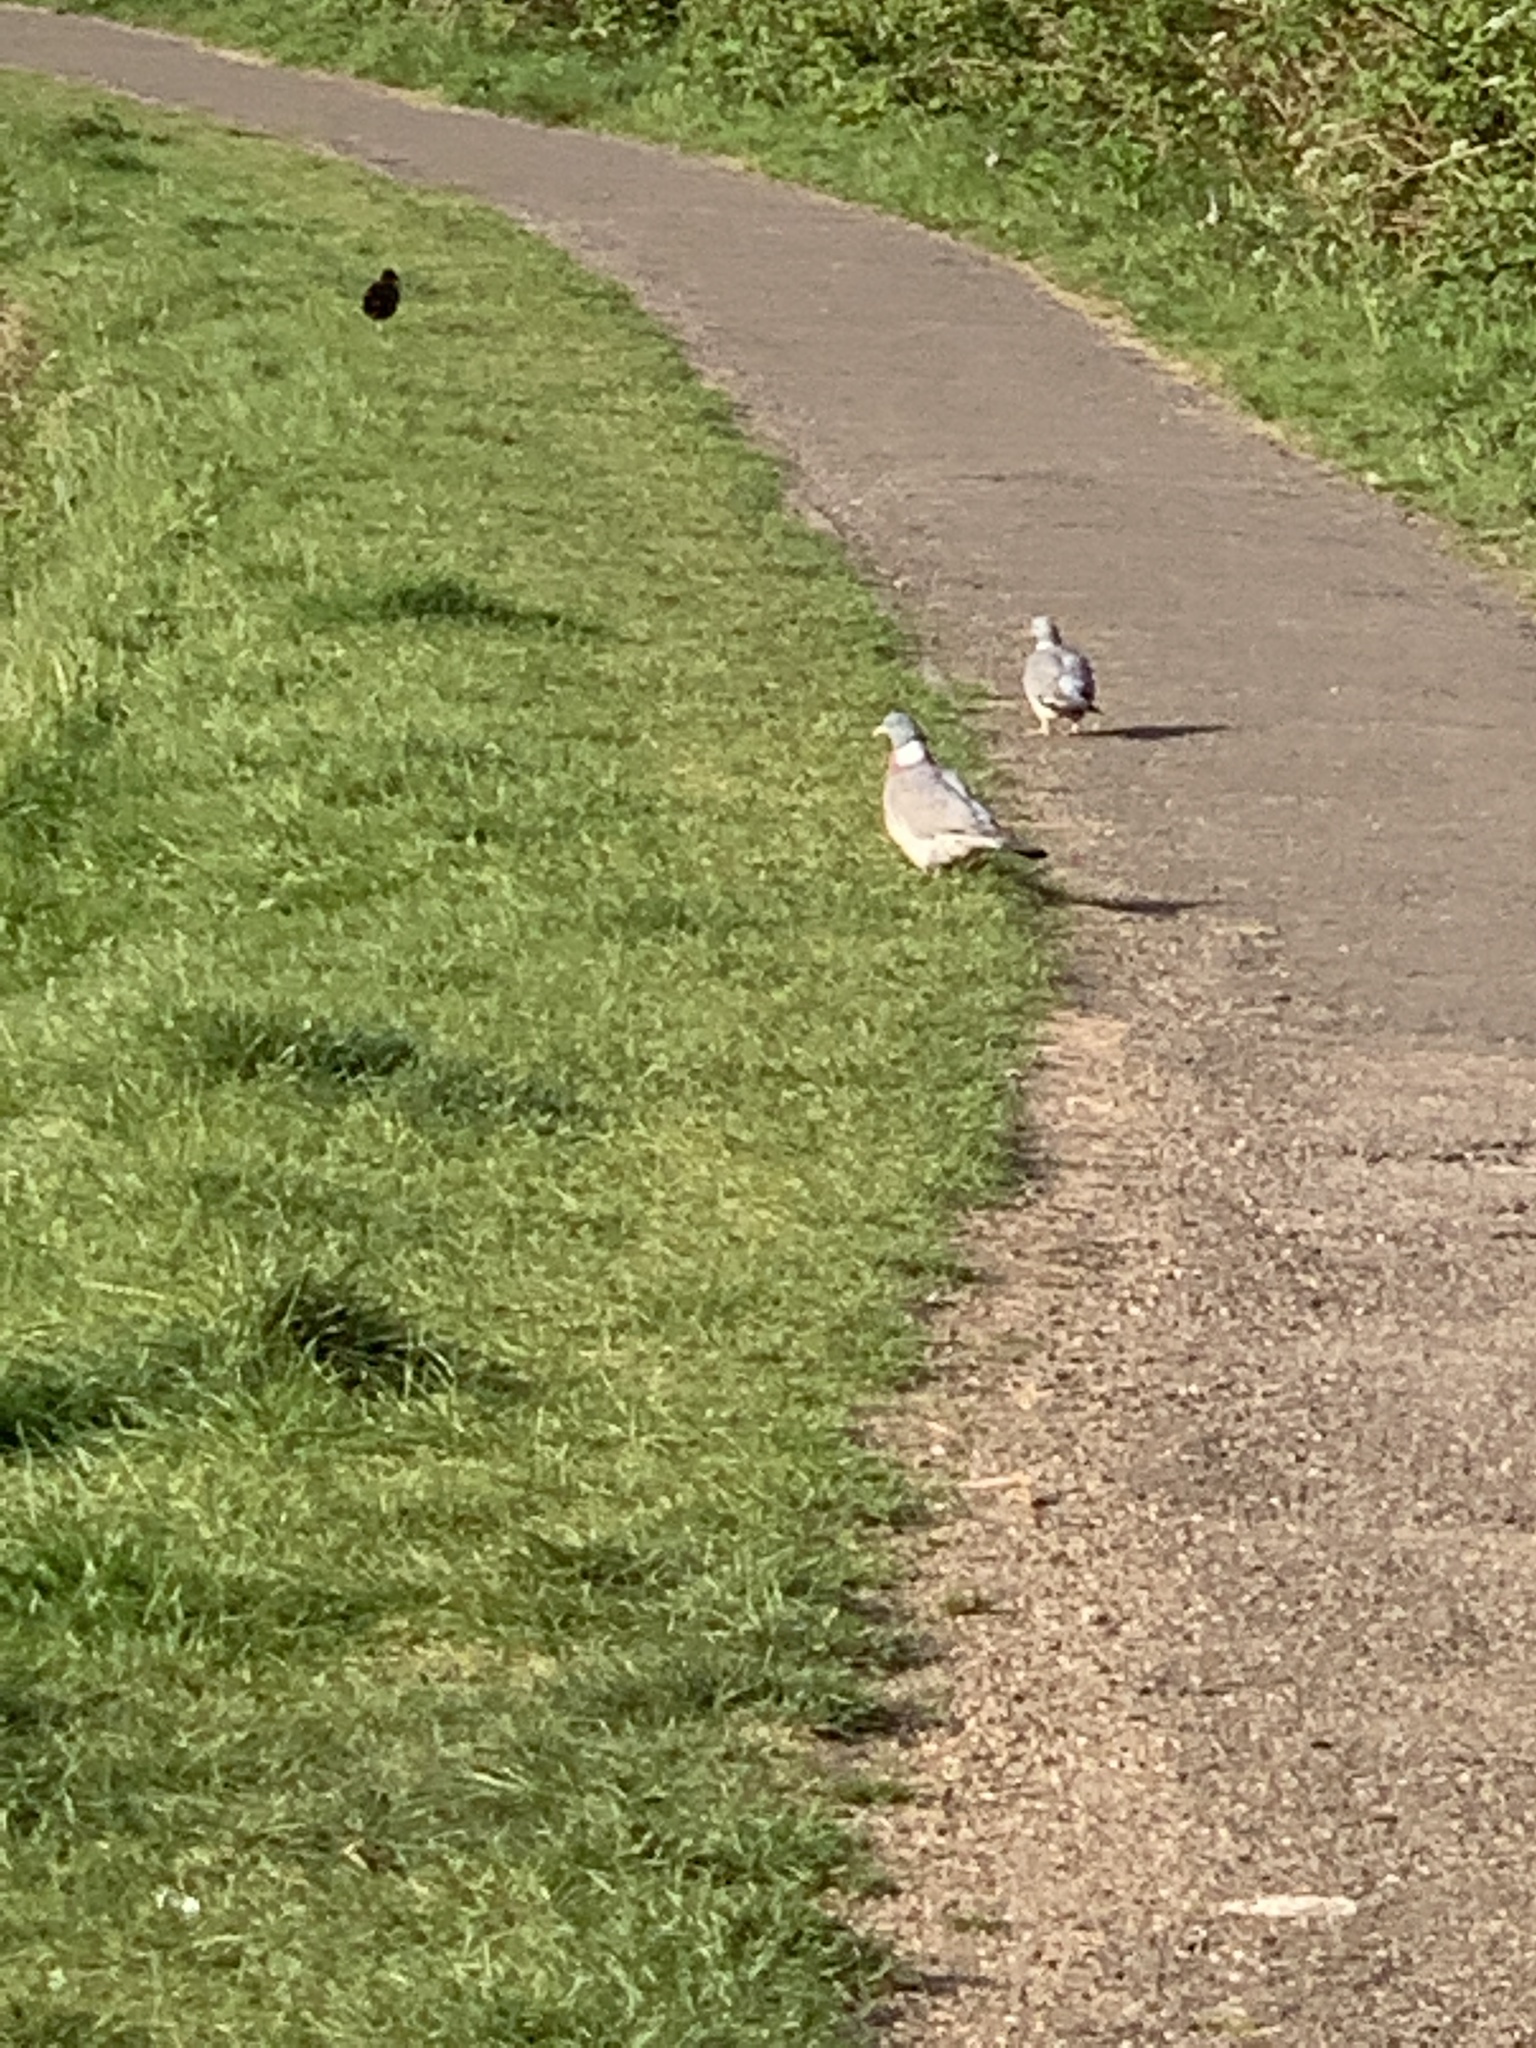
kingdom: Animalia
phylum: Chordata
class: Aves
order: Columbiformes
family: Columbidae
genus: Columba
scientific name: Columba palumbus
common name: Common wood pigeon
